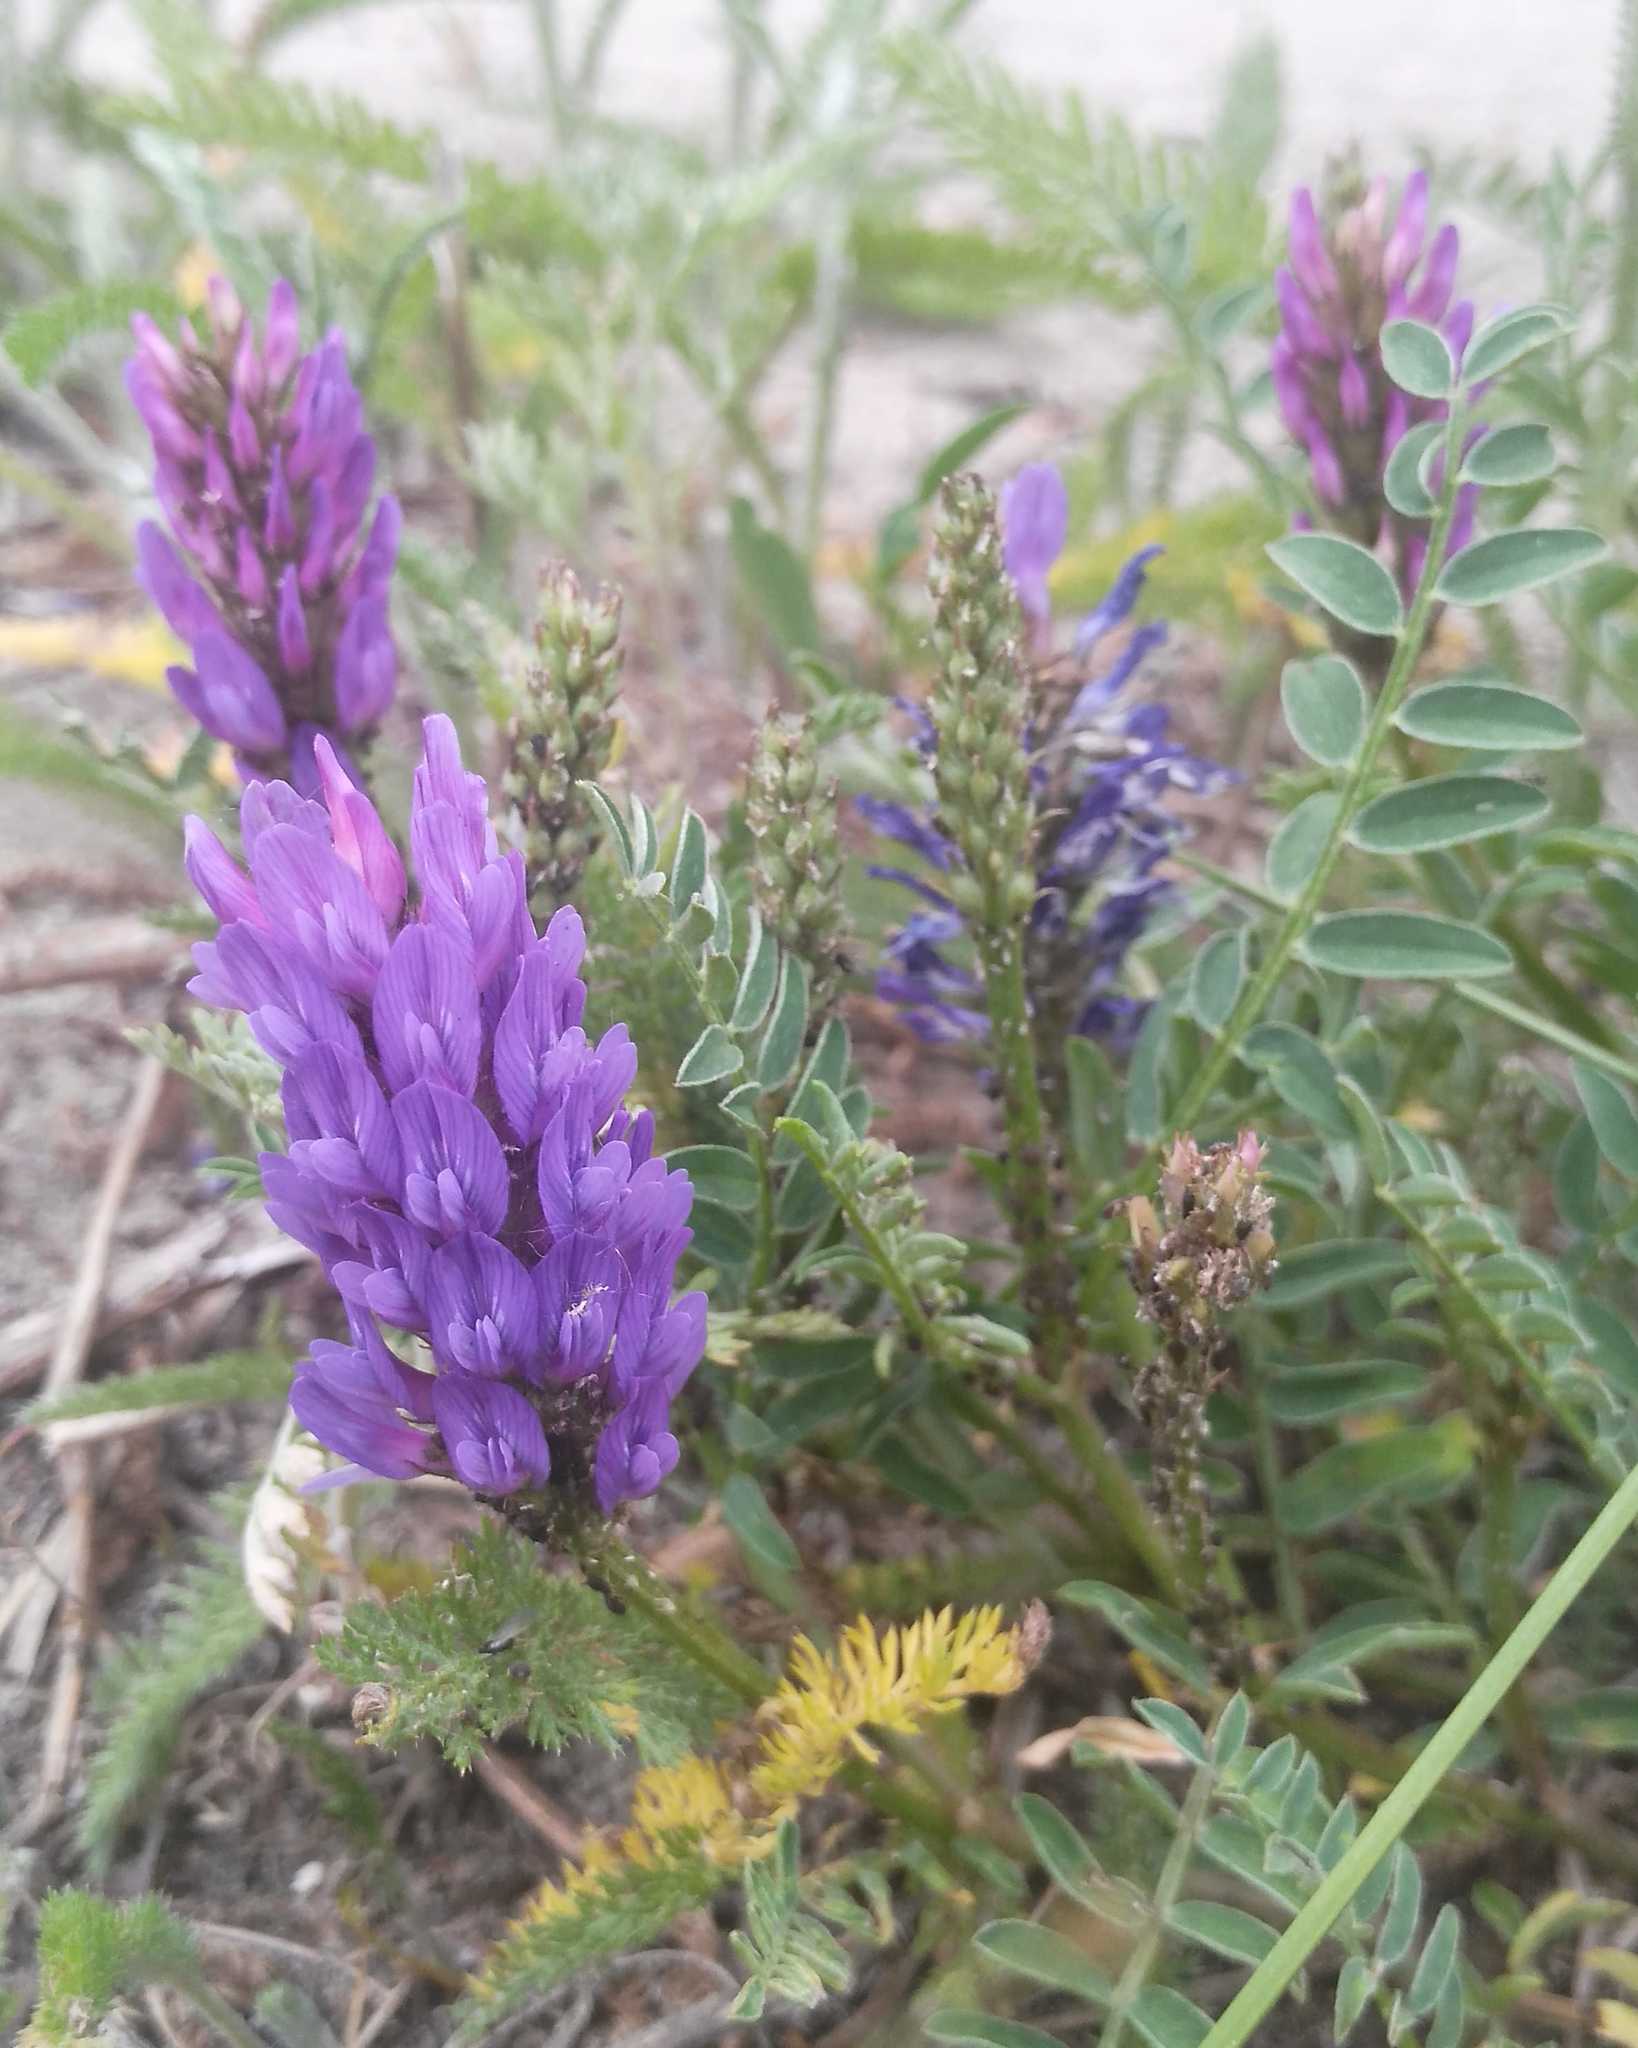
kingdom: Plantae
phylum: Tracheophyta
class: Magnoliopsida
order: Fabales
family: Fabaceae
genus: Astragalus
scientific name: Astragalus laxmannii
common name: Laxmann's milk-vetch
